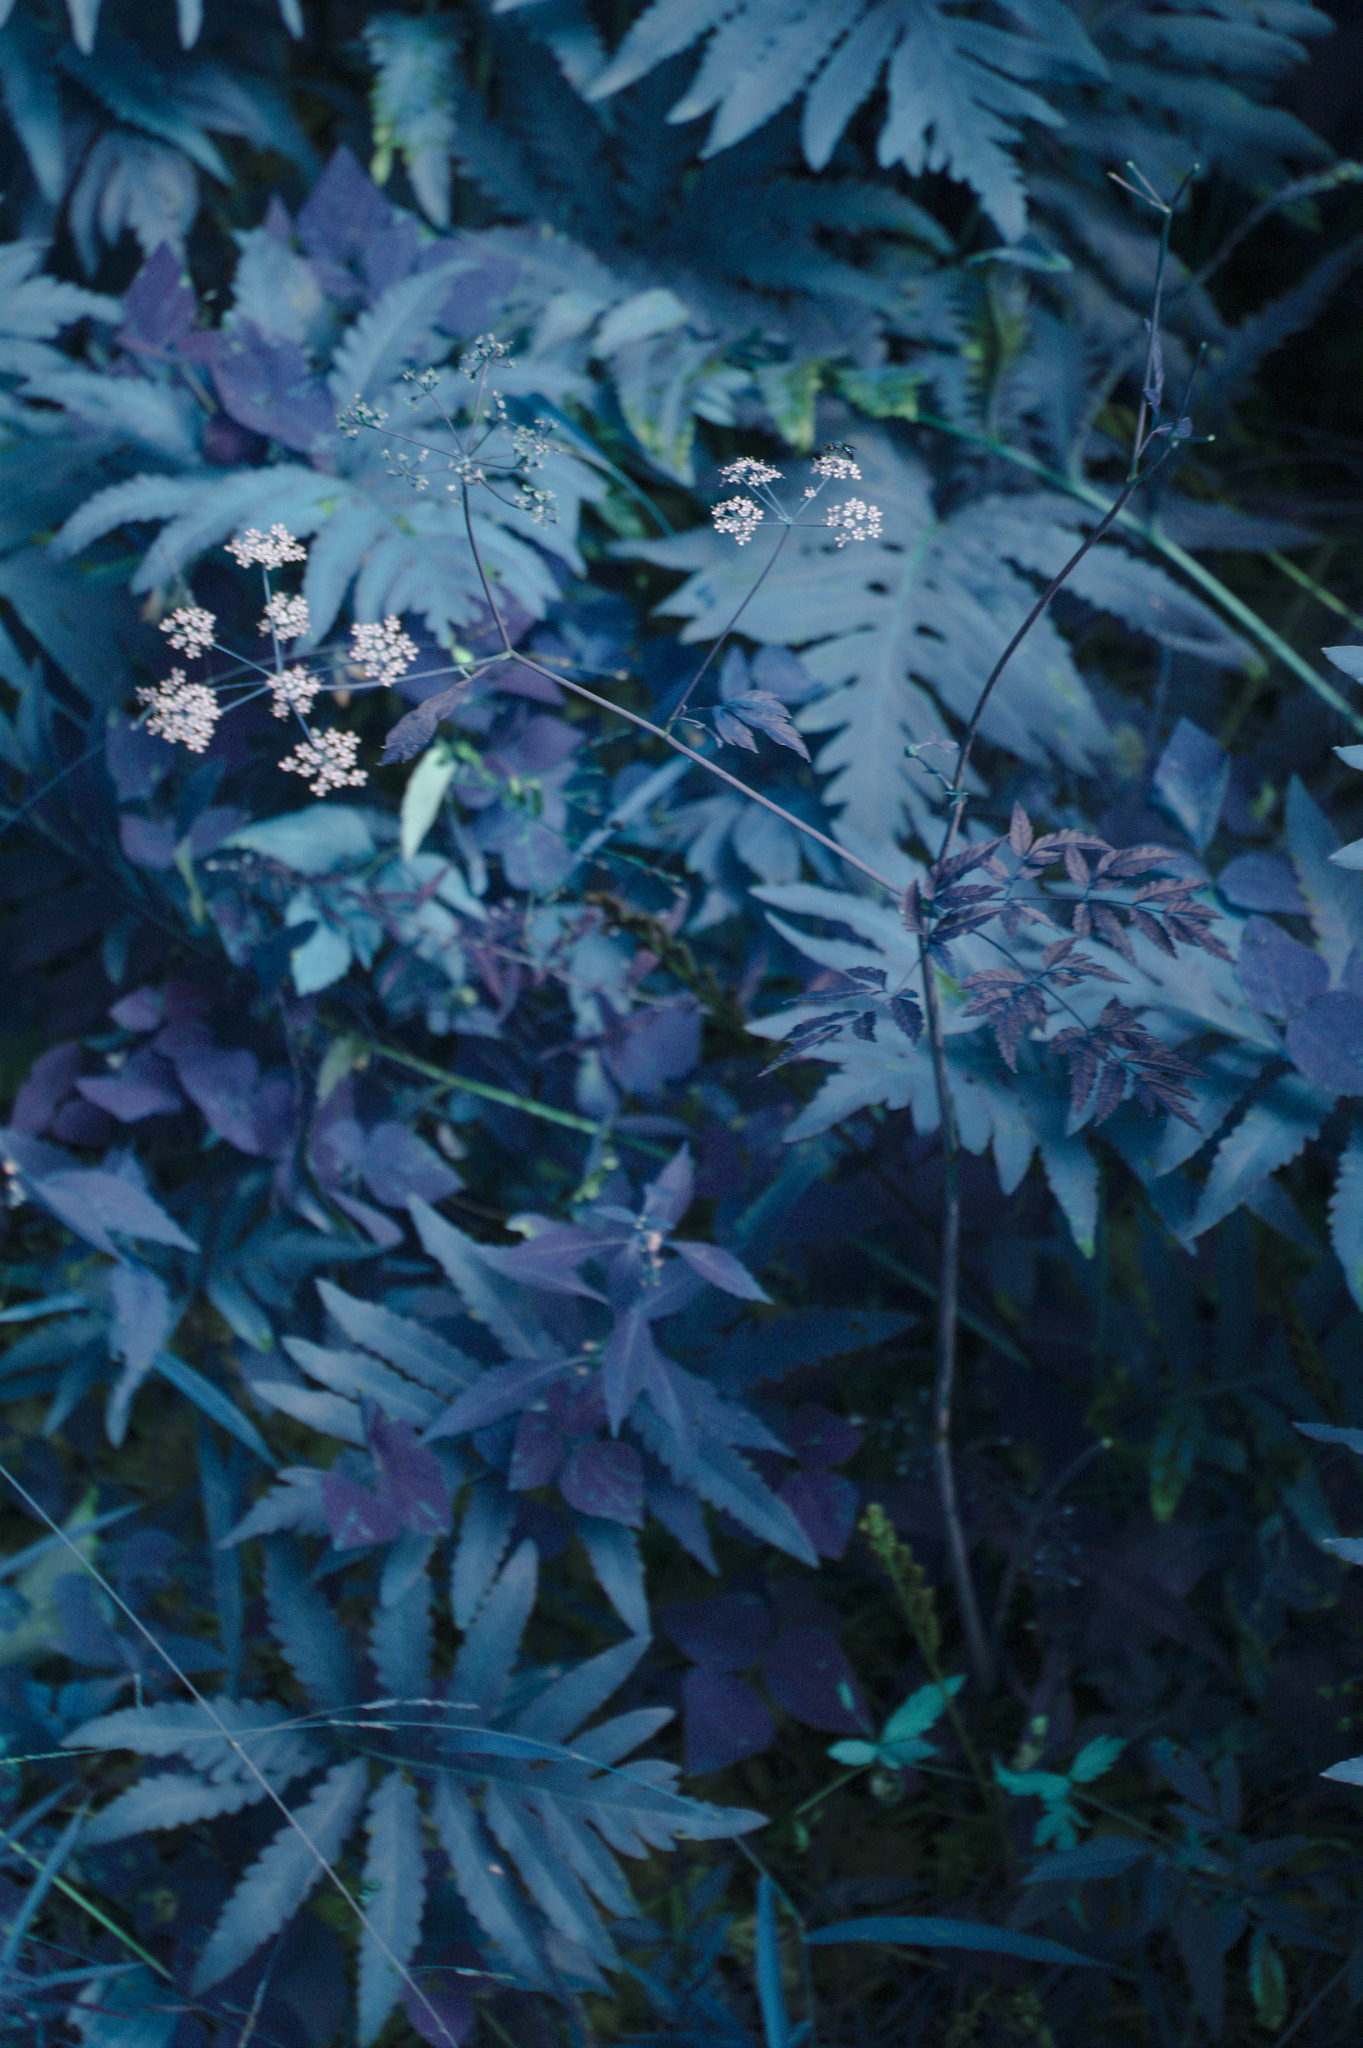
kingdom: Plantae
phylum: Tracheophyta
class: Magnoliopsida
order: Apiales
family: Apiaceae
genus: Cicuta
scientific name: Cicuta maculata
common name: Spotted cowbane
